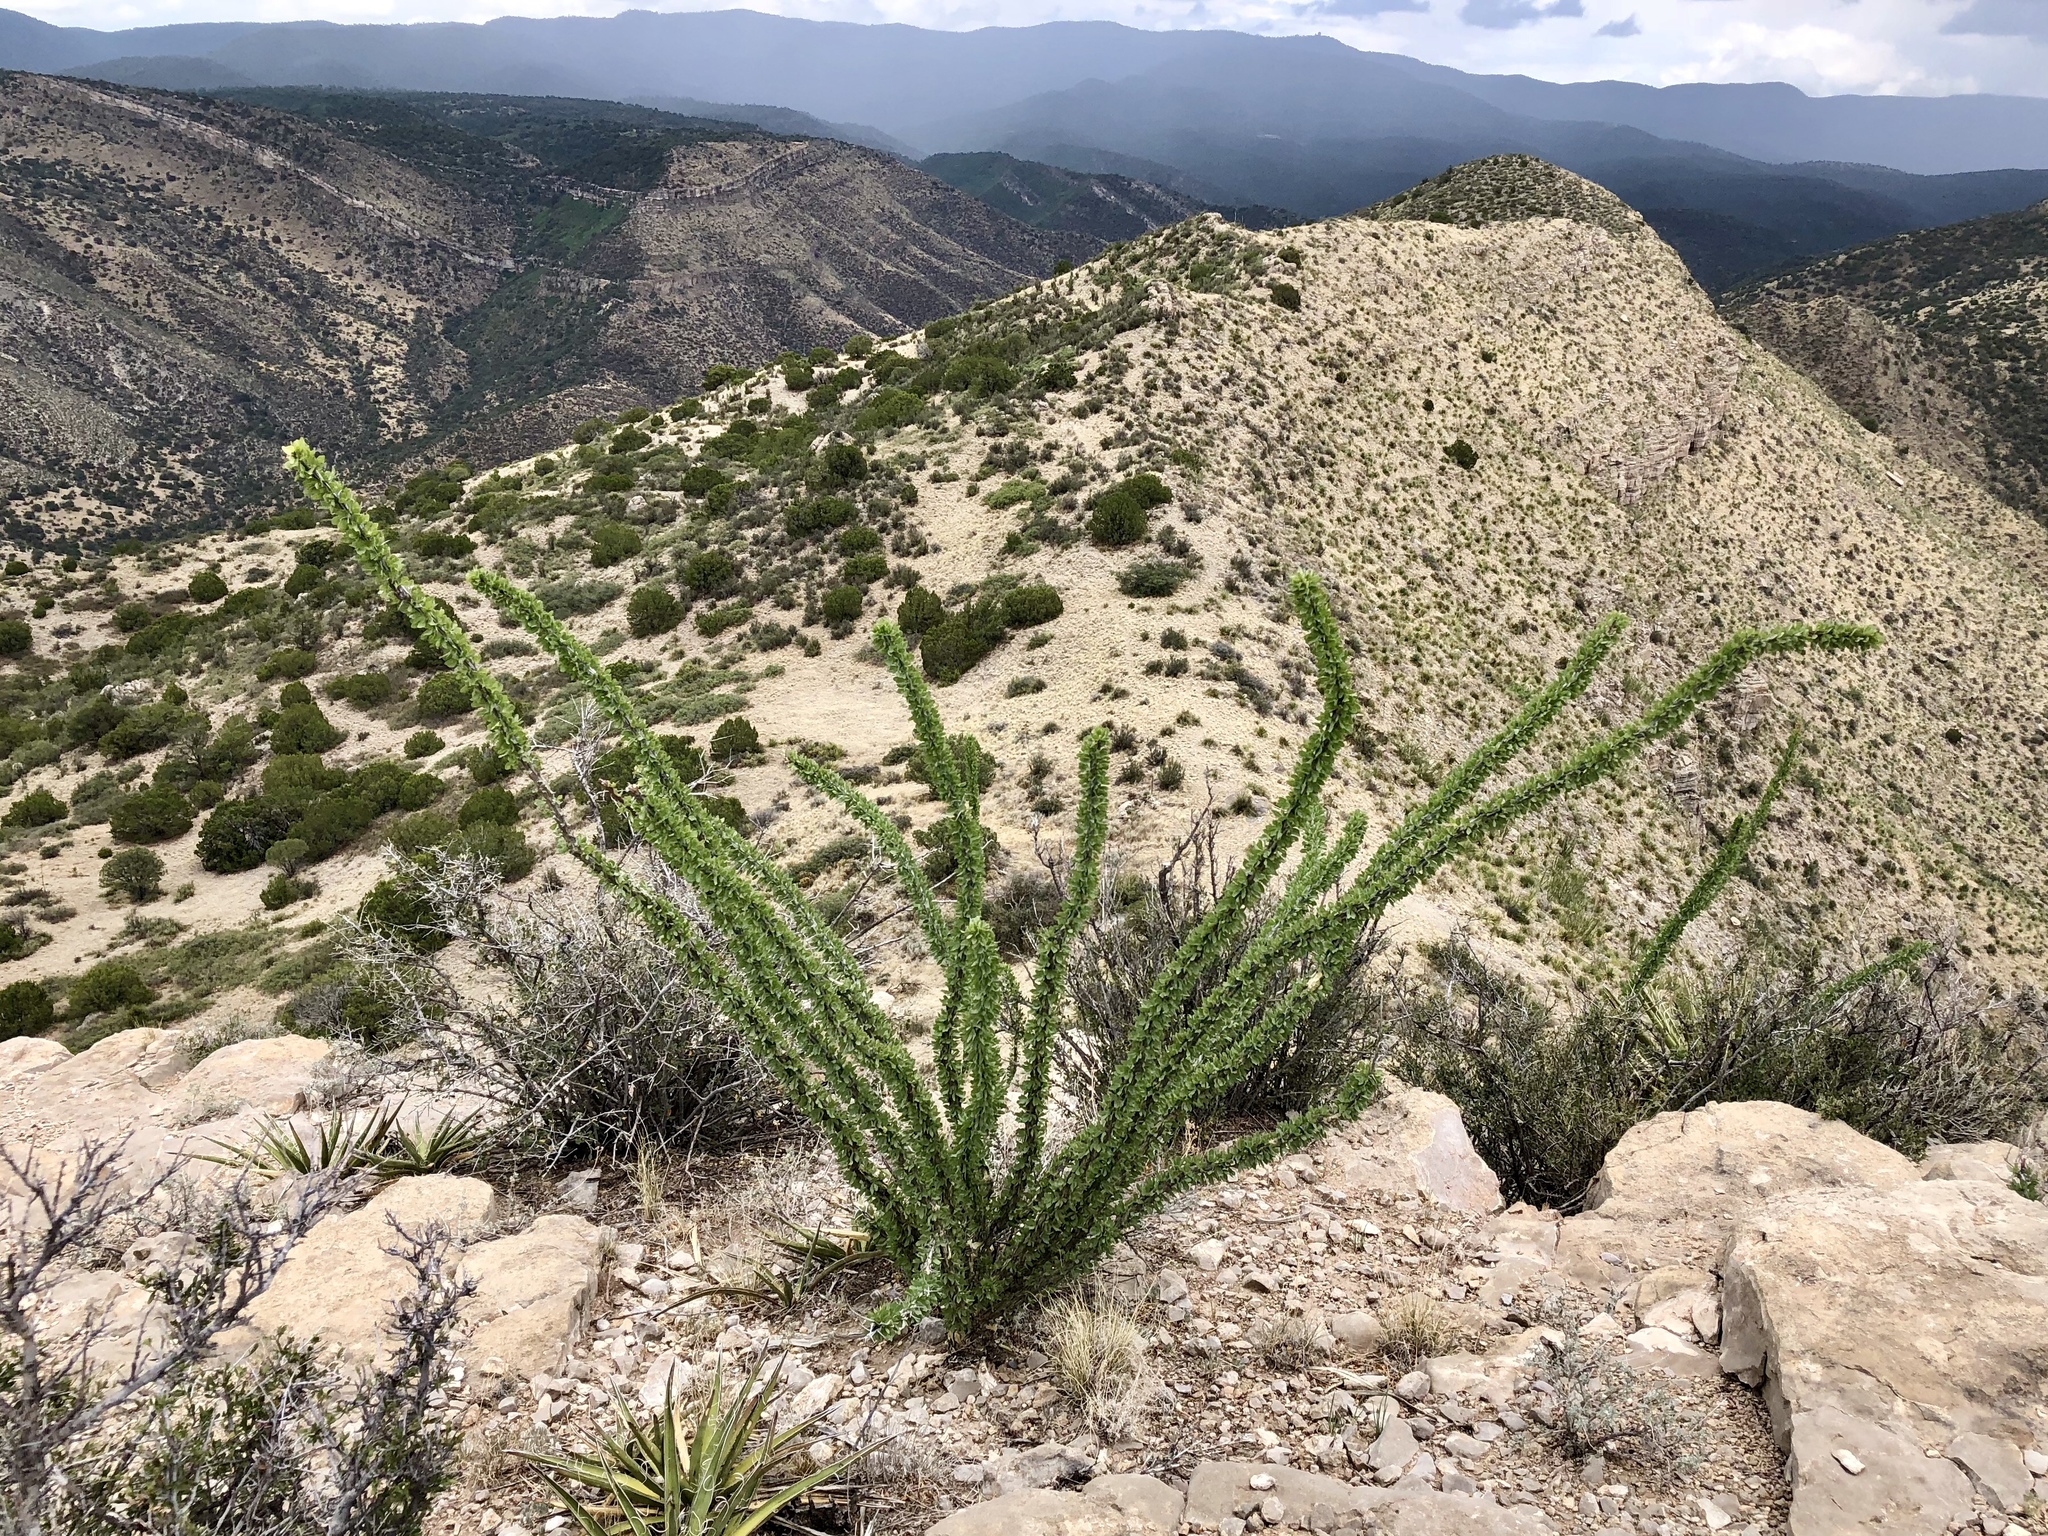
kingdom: Plantae
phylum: Tracheophyta
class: Magnoliopsida
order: Ericales
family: Fouquieriaceae
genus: Fouquieria
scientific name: Fouquieria splendens
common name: Vine-cactus
